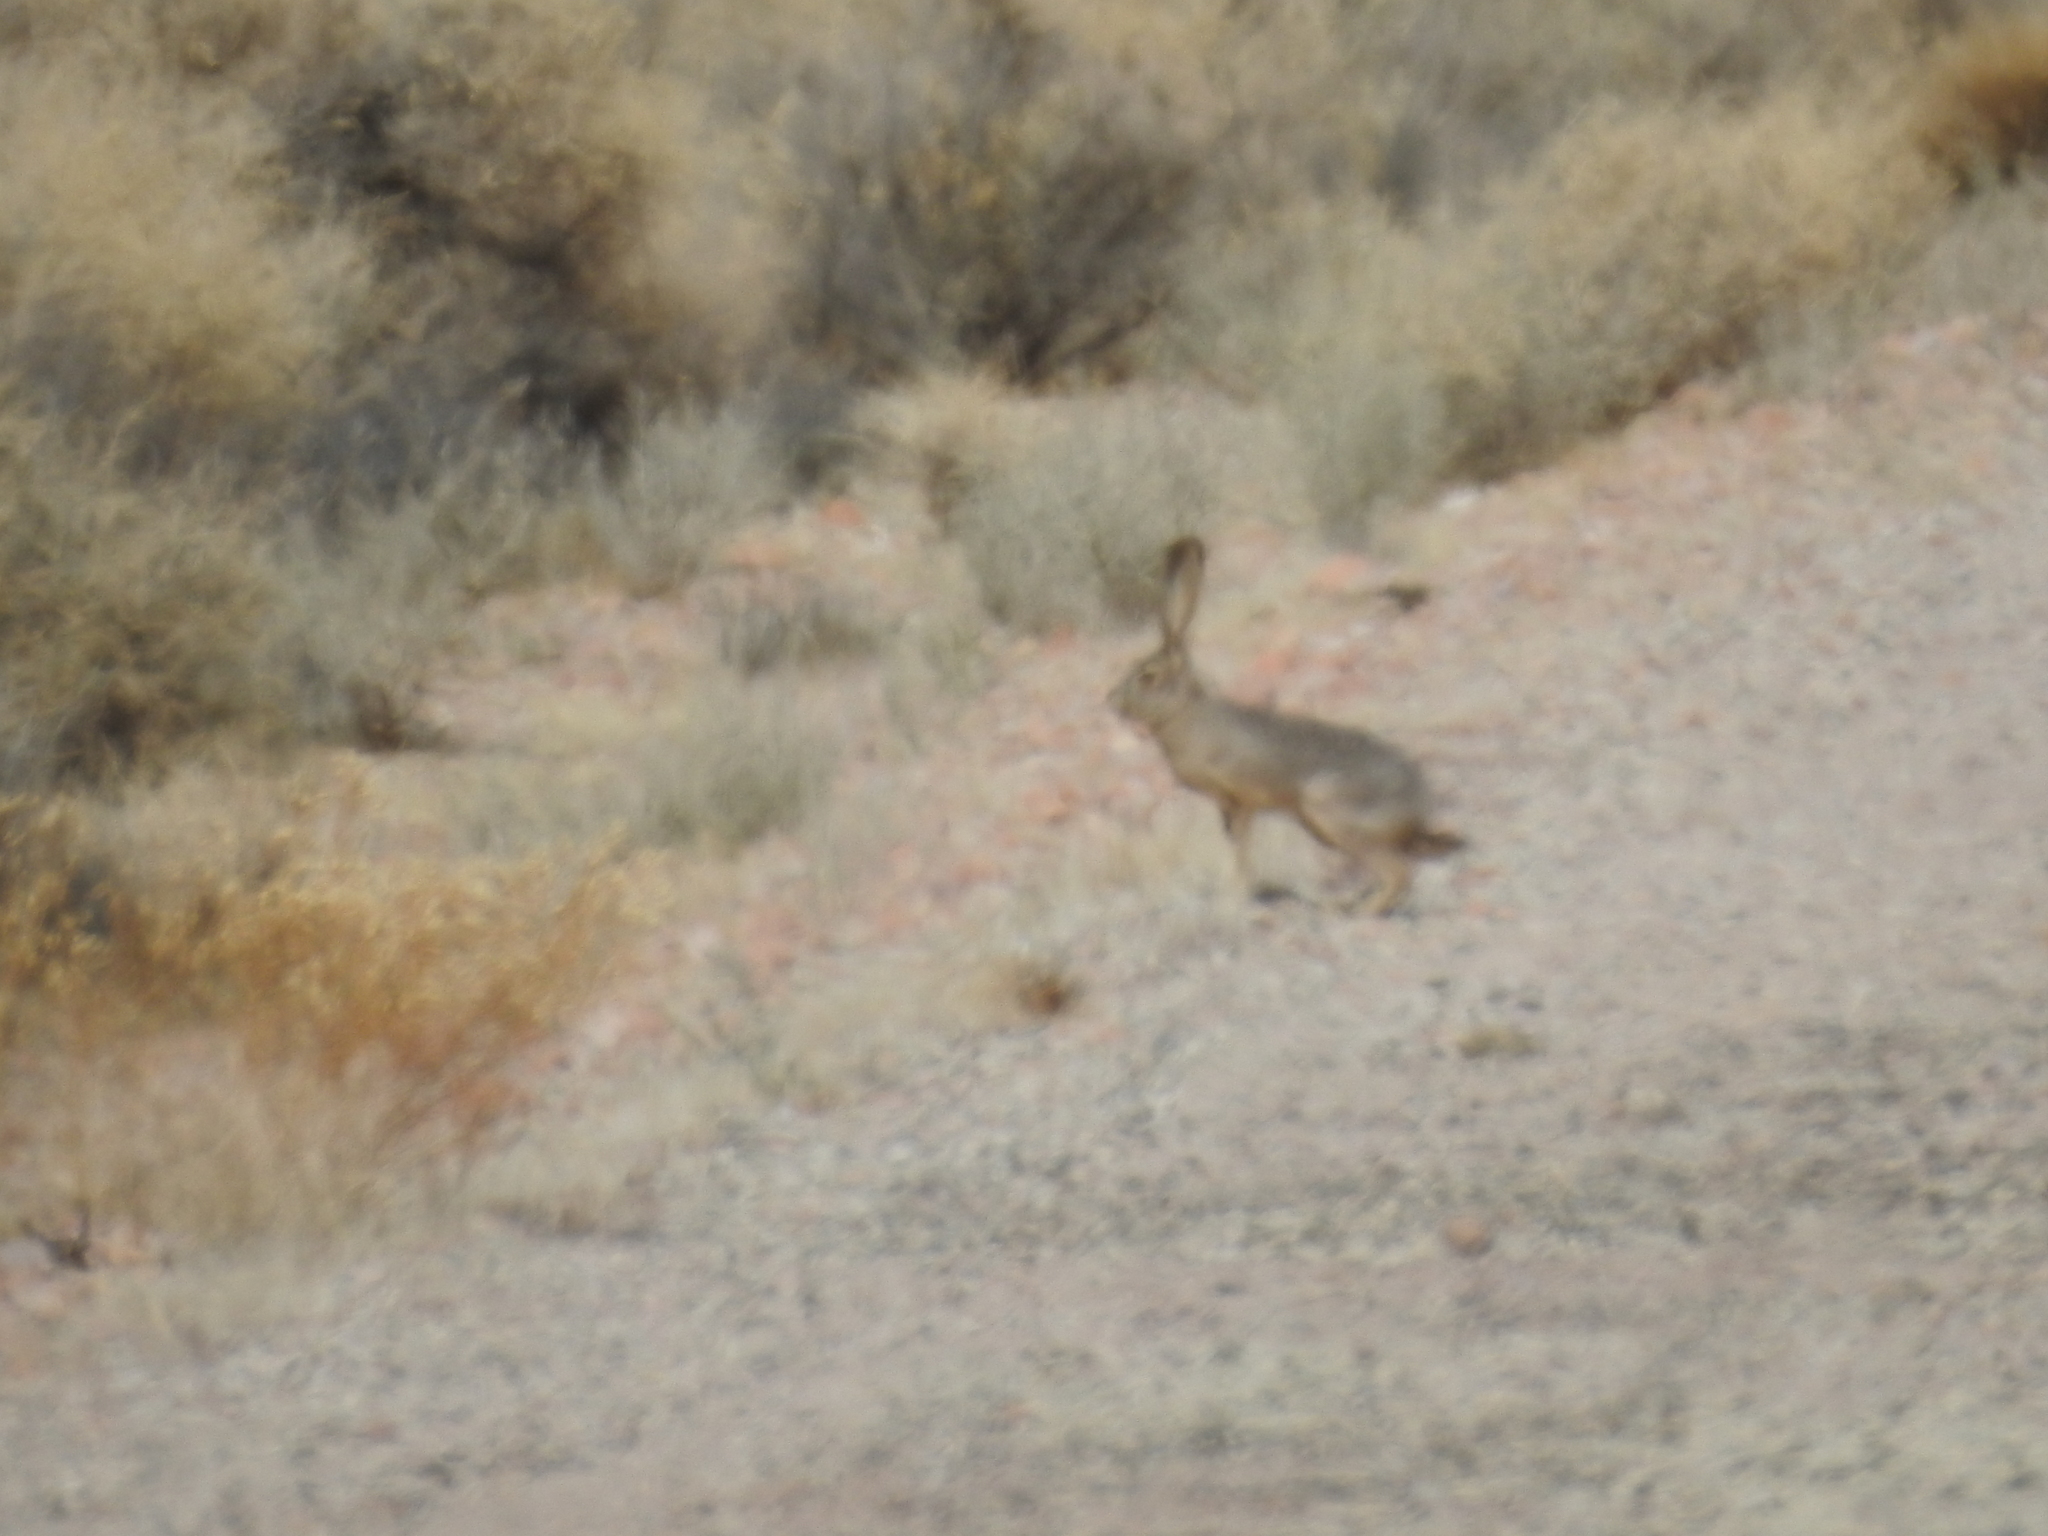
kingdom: Animalia
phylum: Chordata
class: Mammalia
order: Lagomorpha
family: Leporidae
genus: Lepus
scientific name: Lepus californicus
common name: Black-tailed jackrabbit
